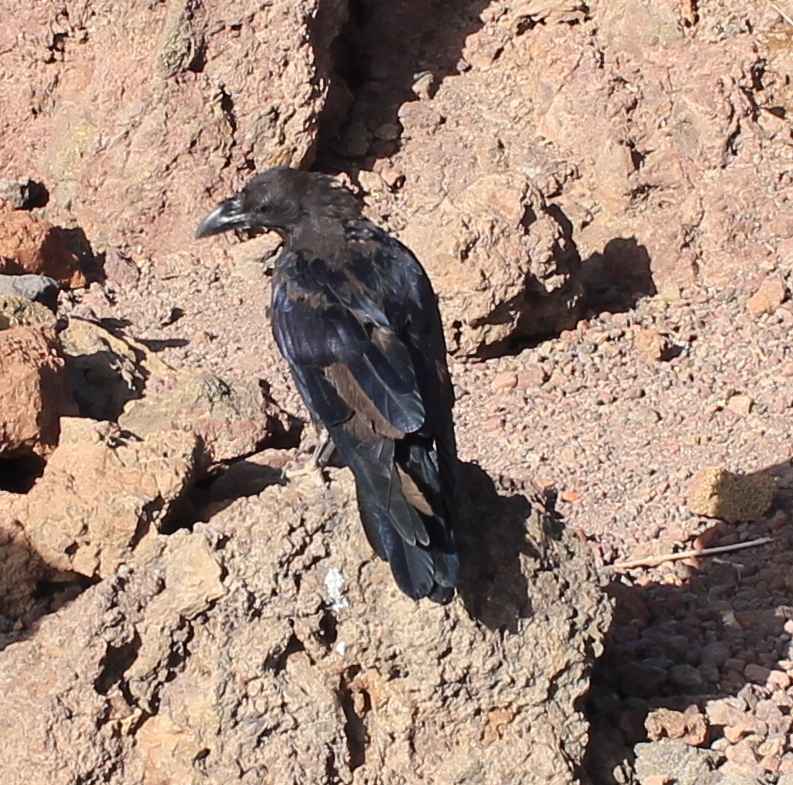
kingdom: Animalia
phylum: Chordata
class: Aves
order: Passeriformes
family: Corvidae
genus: Corvus
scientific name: Corvus corax
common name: Common raven
